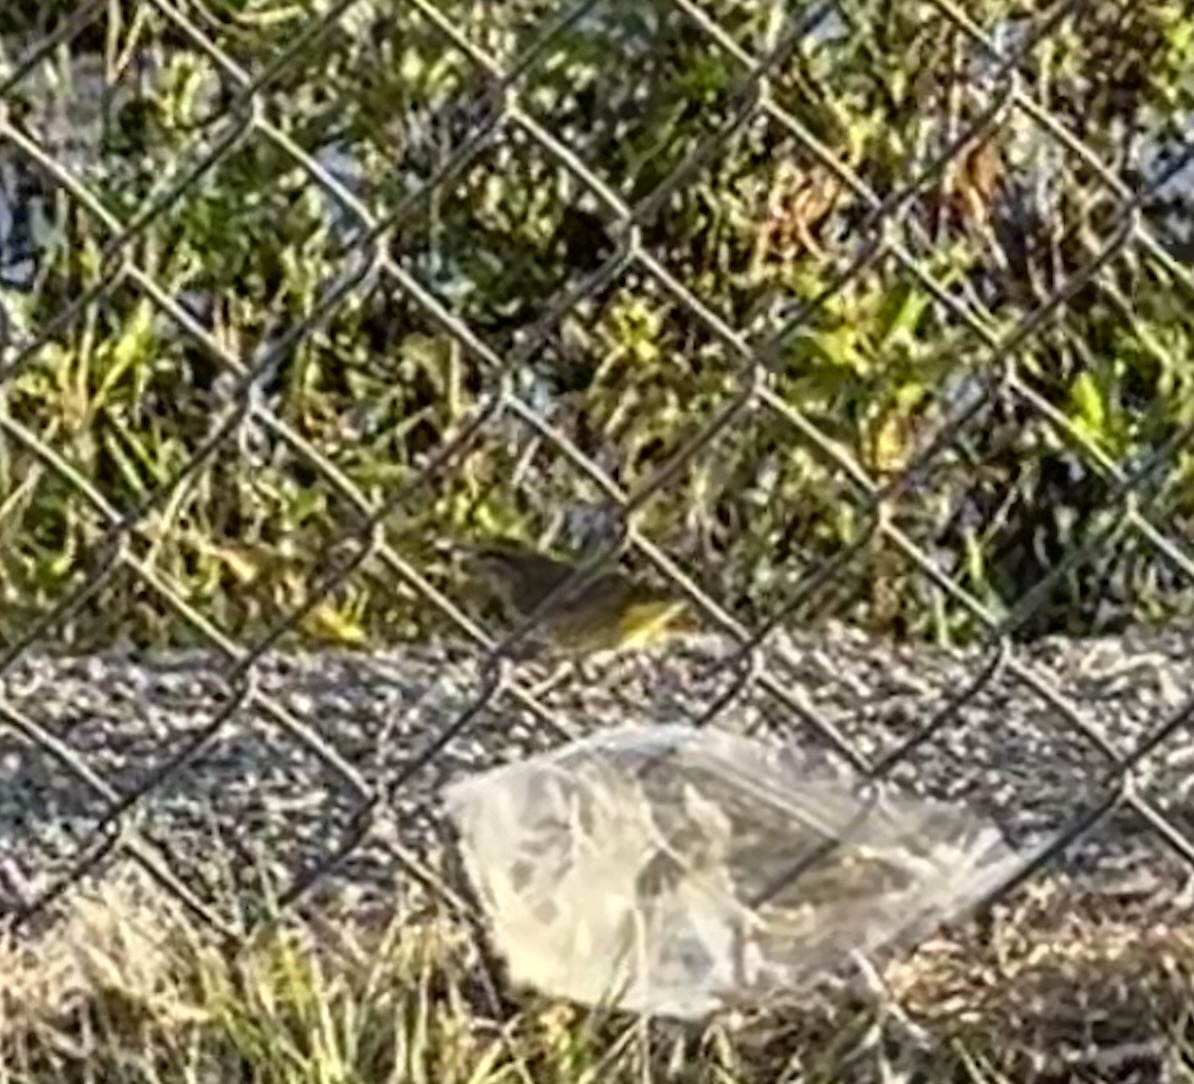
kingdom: Animalia
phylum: Chordata
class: Aves
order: Passeriformes
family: Parulidae
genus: Setophaga
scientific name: Setophaga palmarum
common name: Palm warbler
